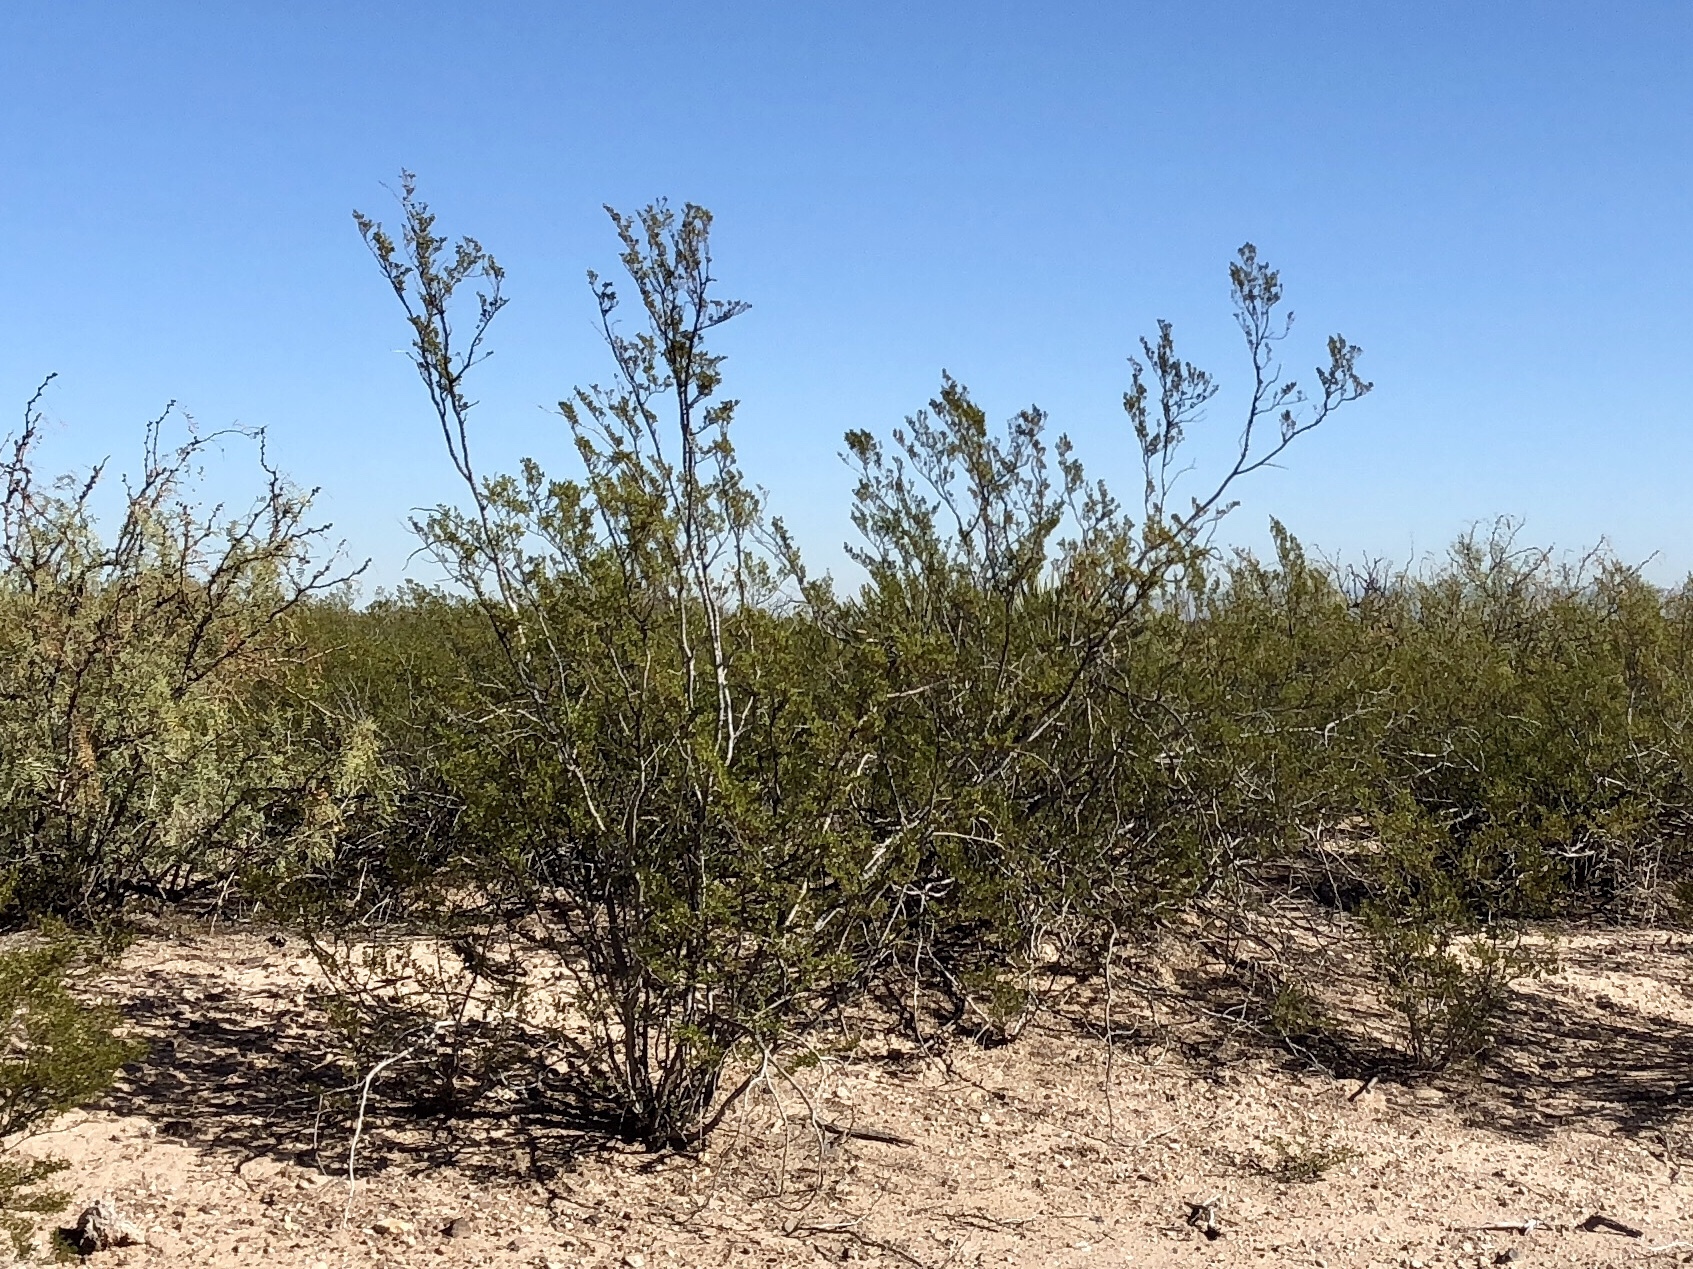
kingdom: Plantae
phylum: Tracheophyta
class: Magnoliopsida
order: Zygophyllales
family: Zygophyllaceae
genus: Larrea
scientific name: Larrea tridentata
